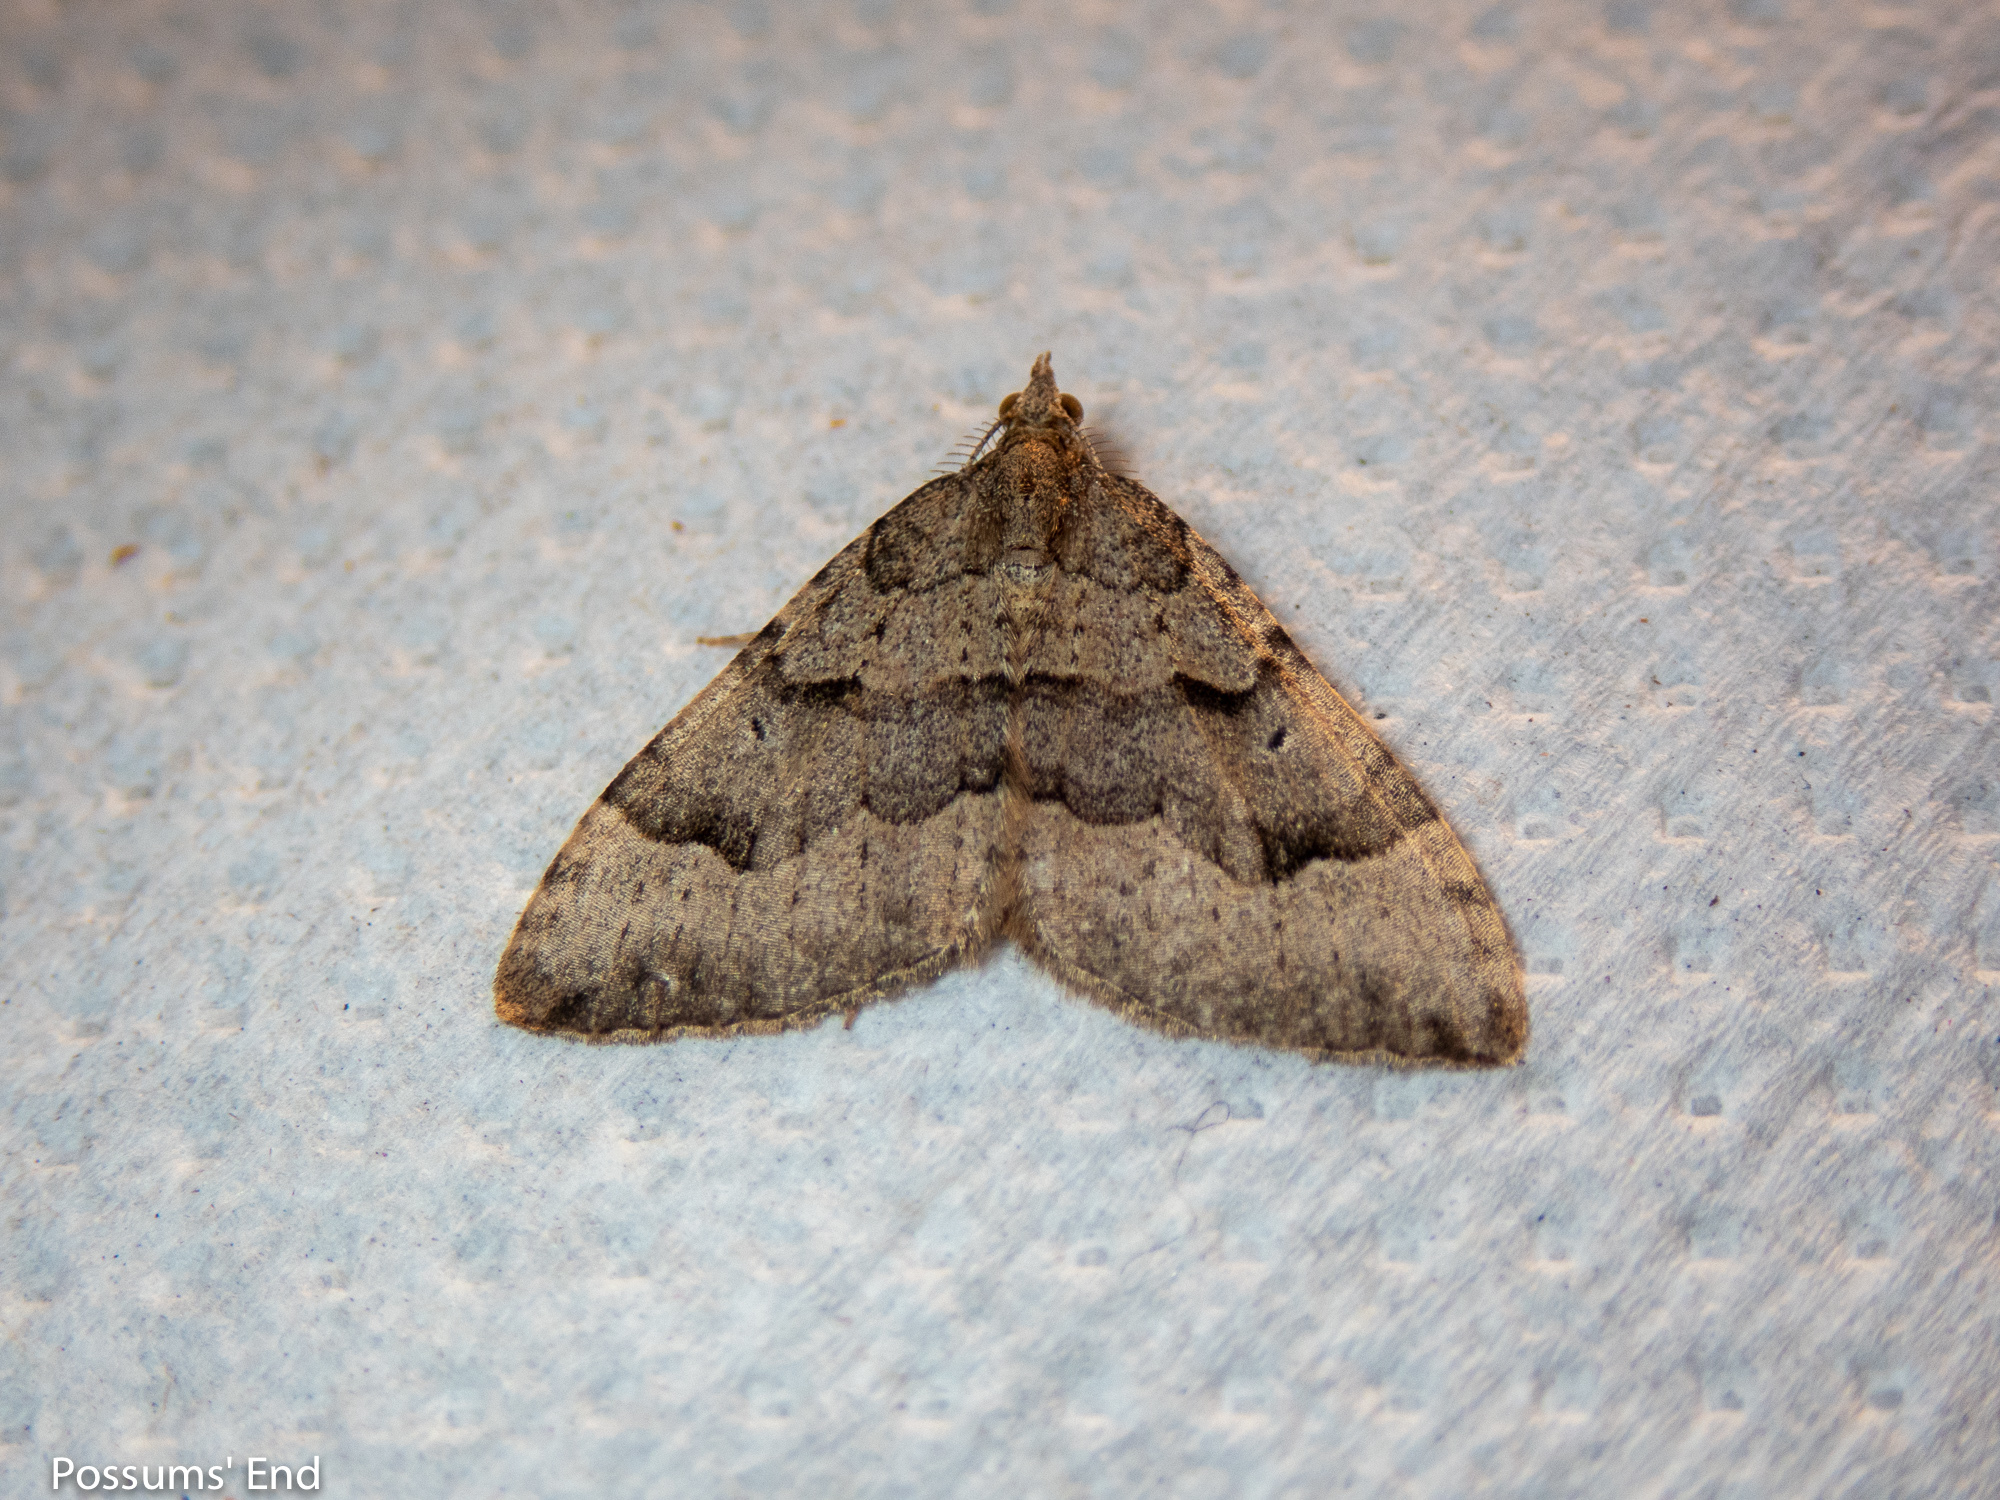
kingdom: Animalia
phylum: Arthropoda
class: Insecta
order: Lepidoptera
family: Geometridae
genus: Epyaxa
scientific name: Epyaxa rosearia
